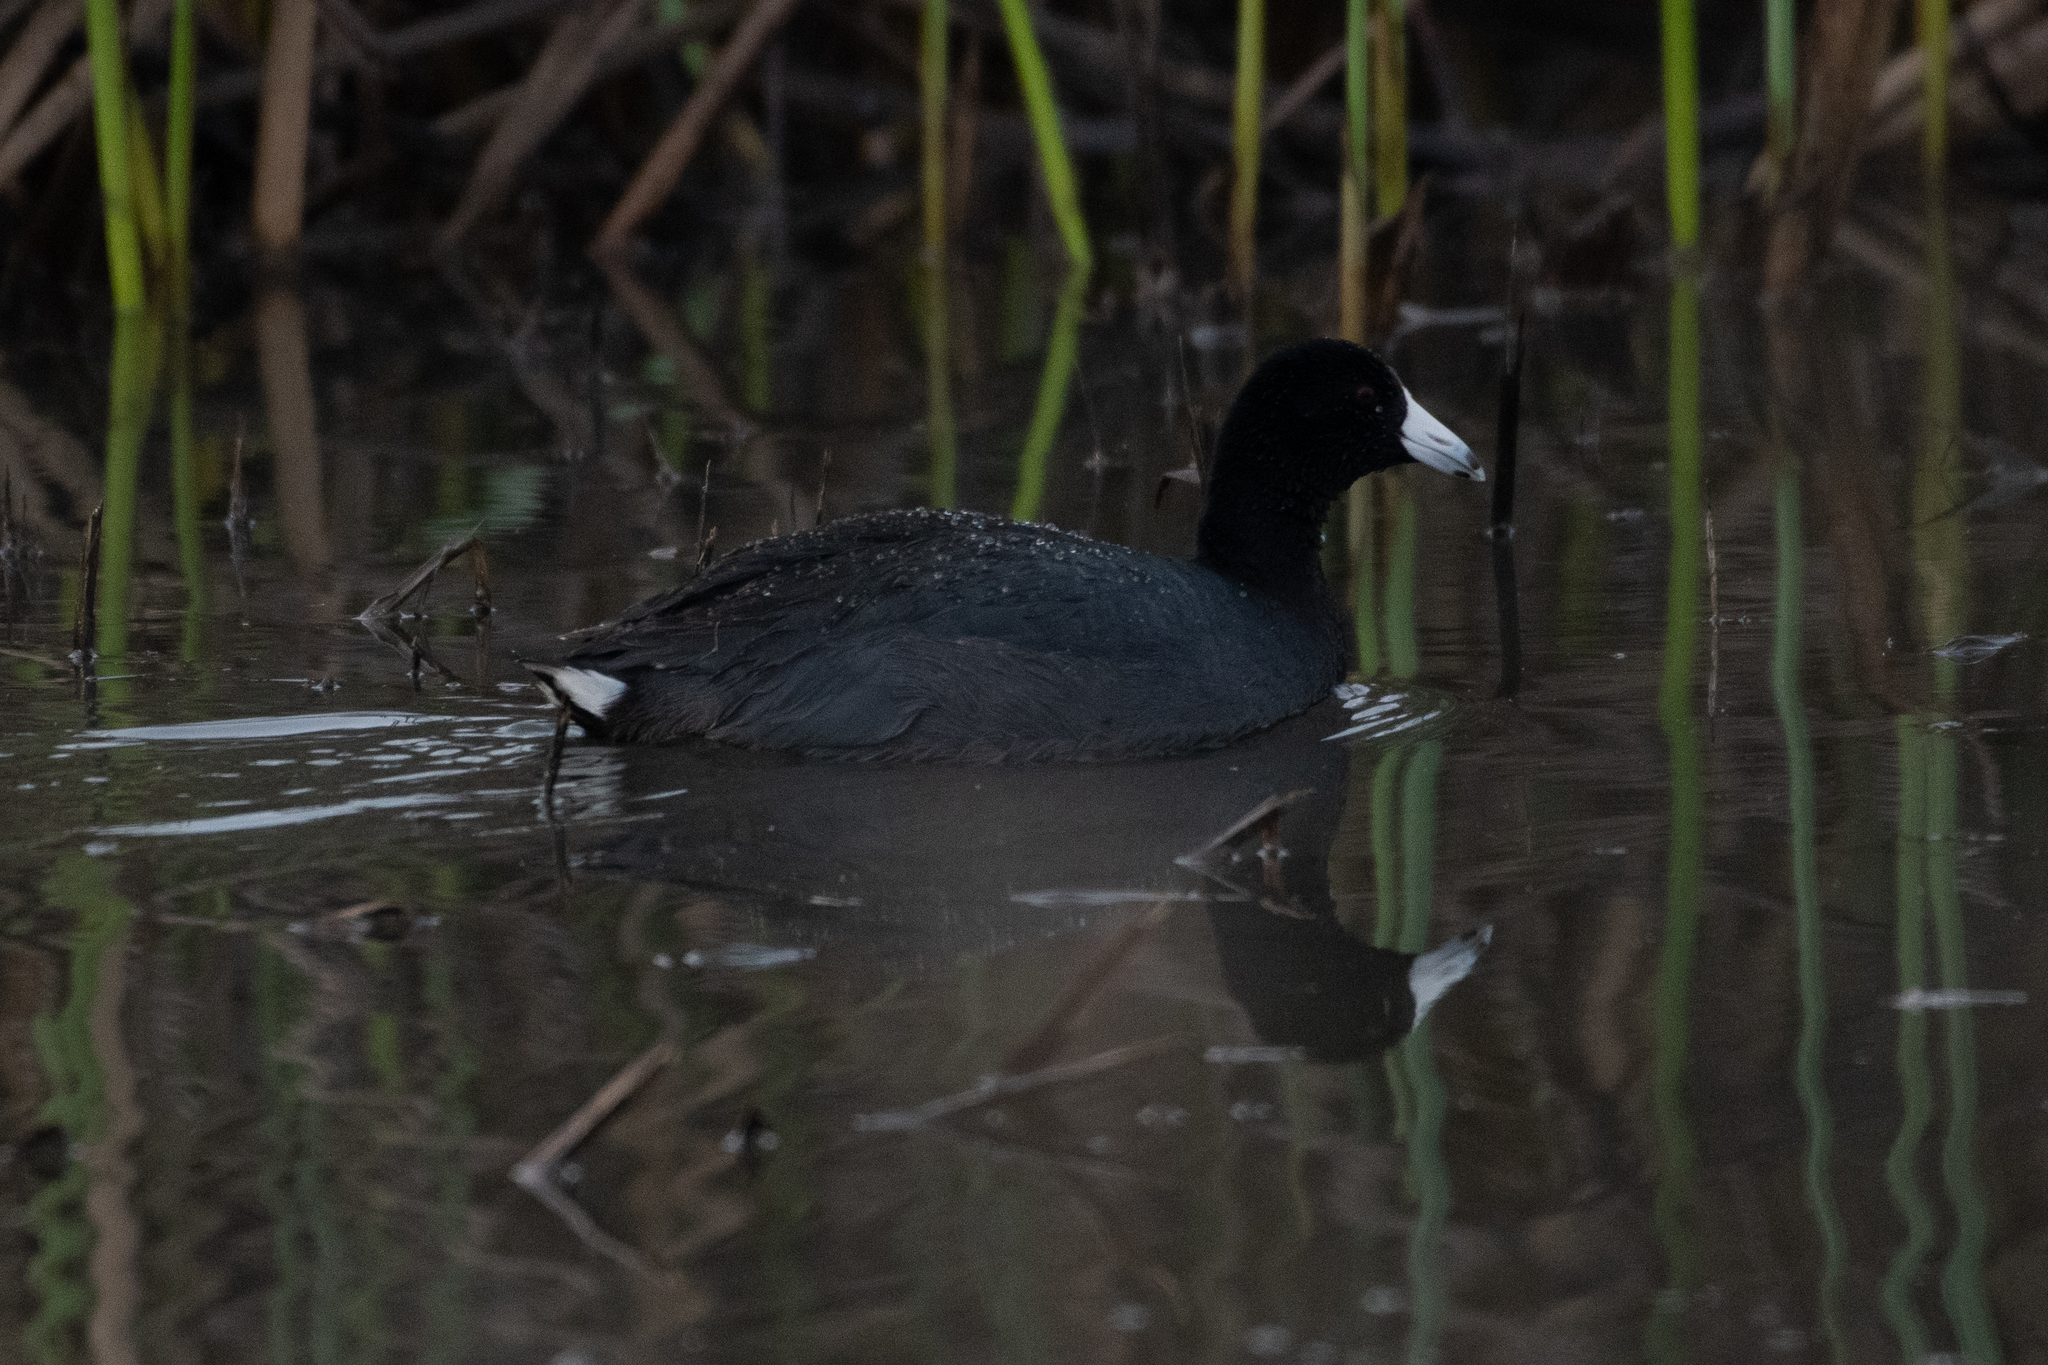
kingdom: Animalia
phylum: Chordata
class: Aves
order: Gruiformes
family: Rallidae
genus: Fulica
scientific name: Fulica americana
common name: American coot
